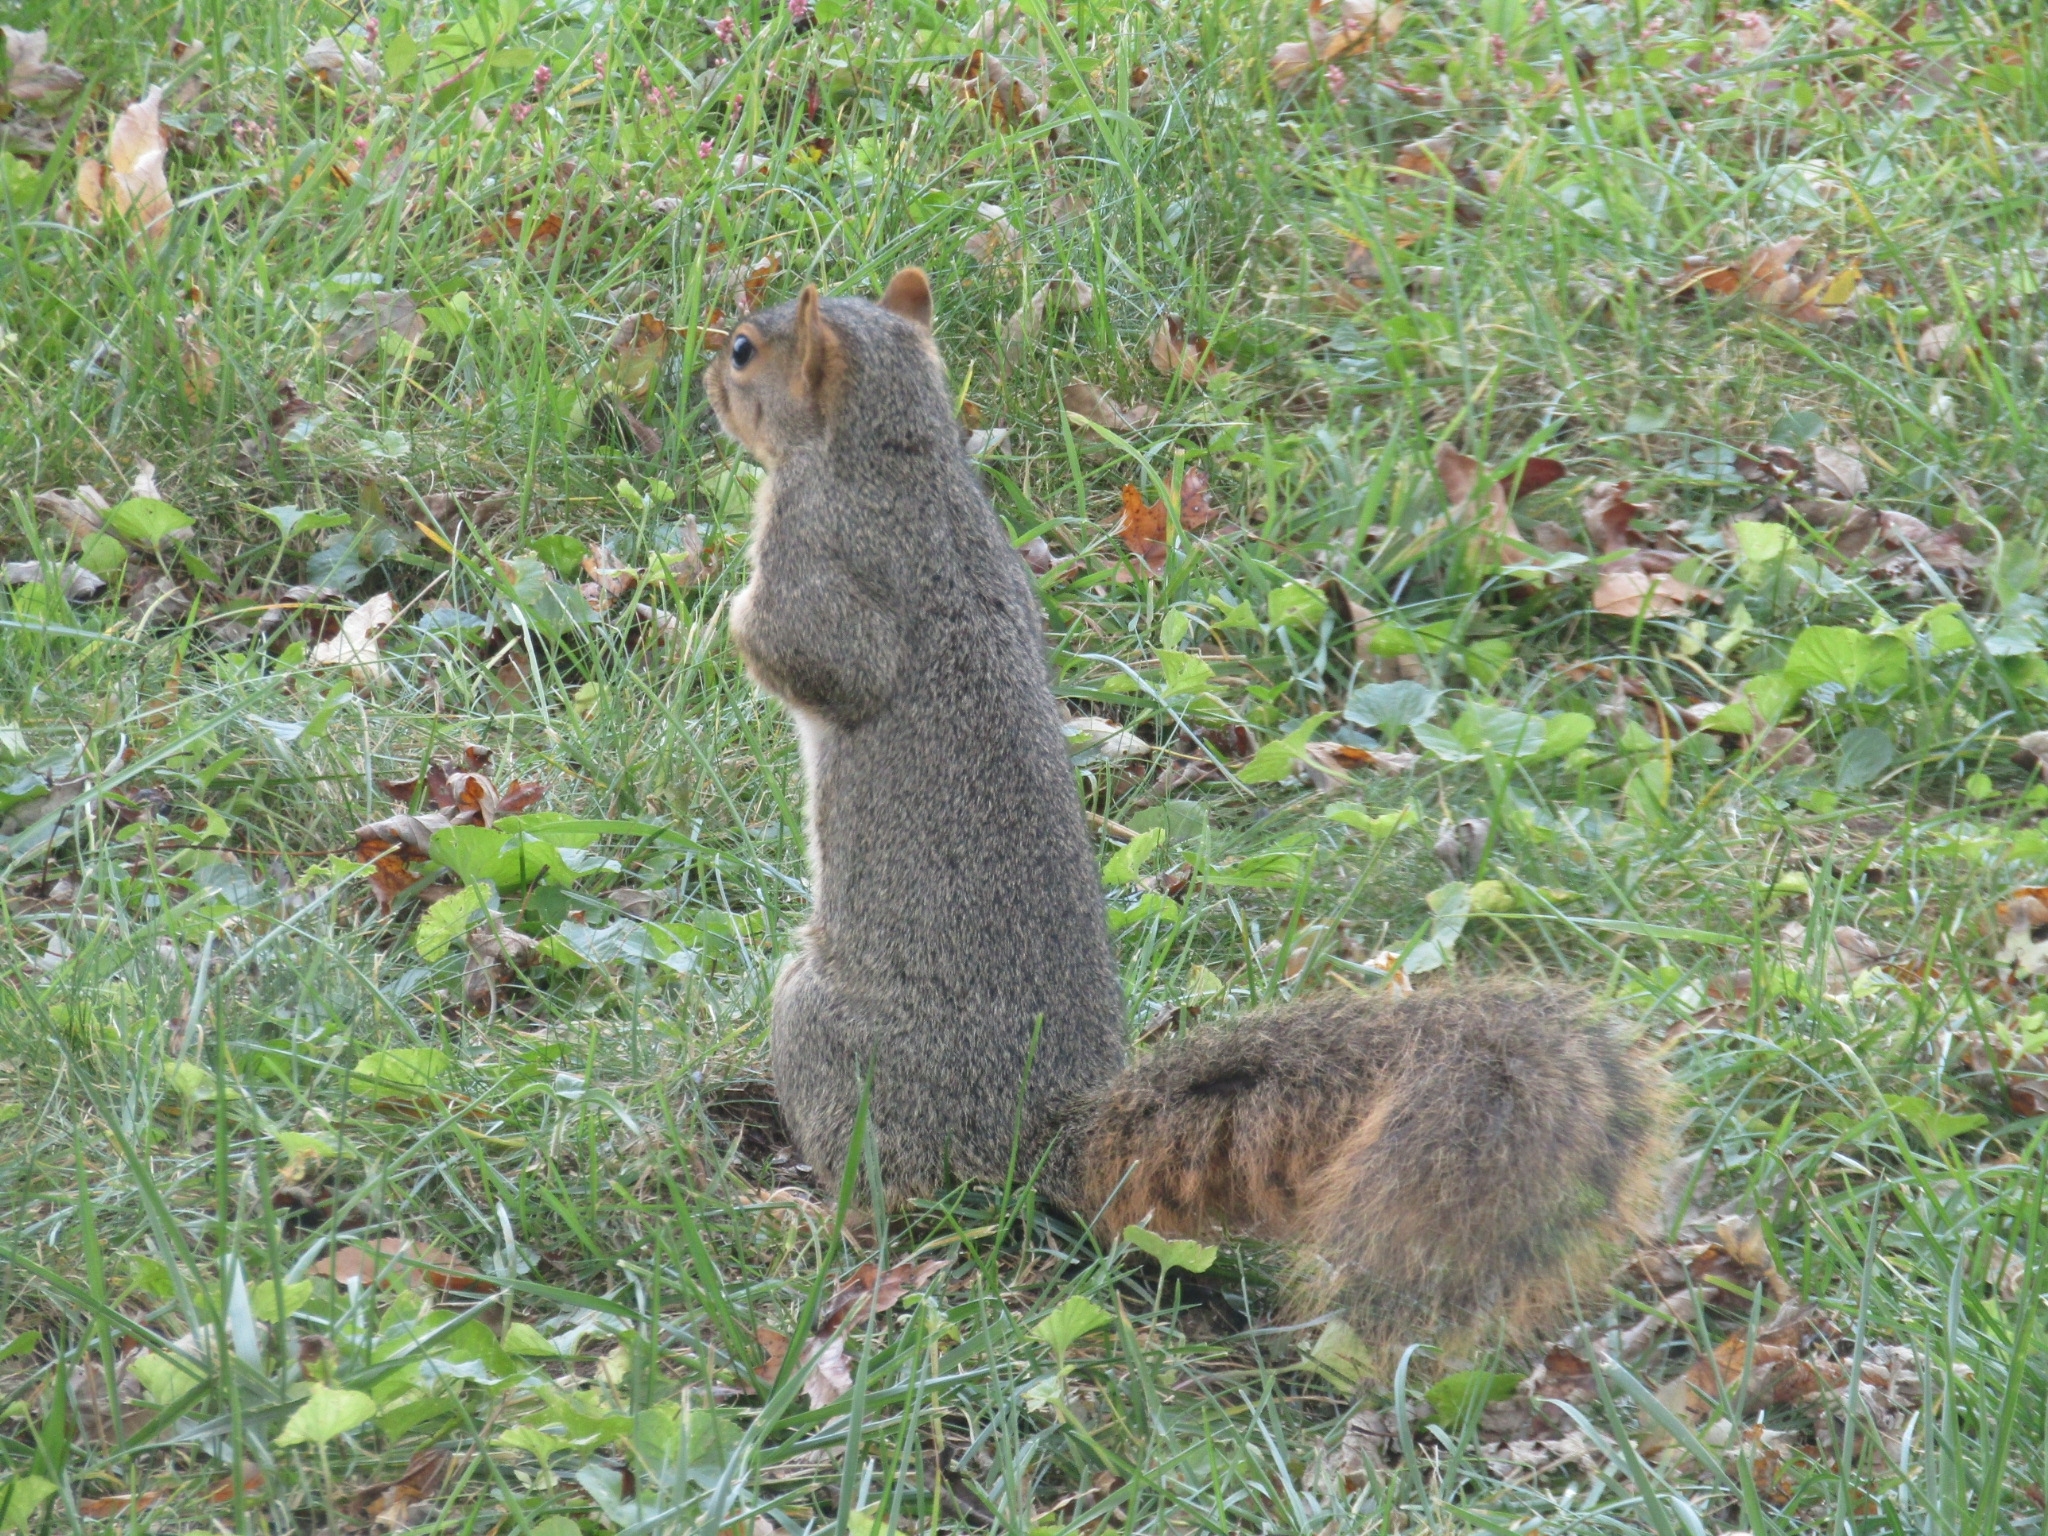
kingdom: Animalia
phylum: Chordata
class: Mammalia
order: Rodentia
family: Sciuridae
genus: Sciurus
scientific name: Sciurus niger
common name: Fox squirrel
